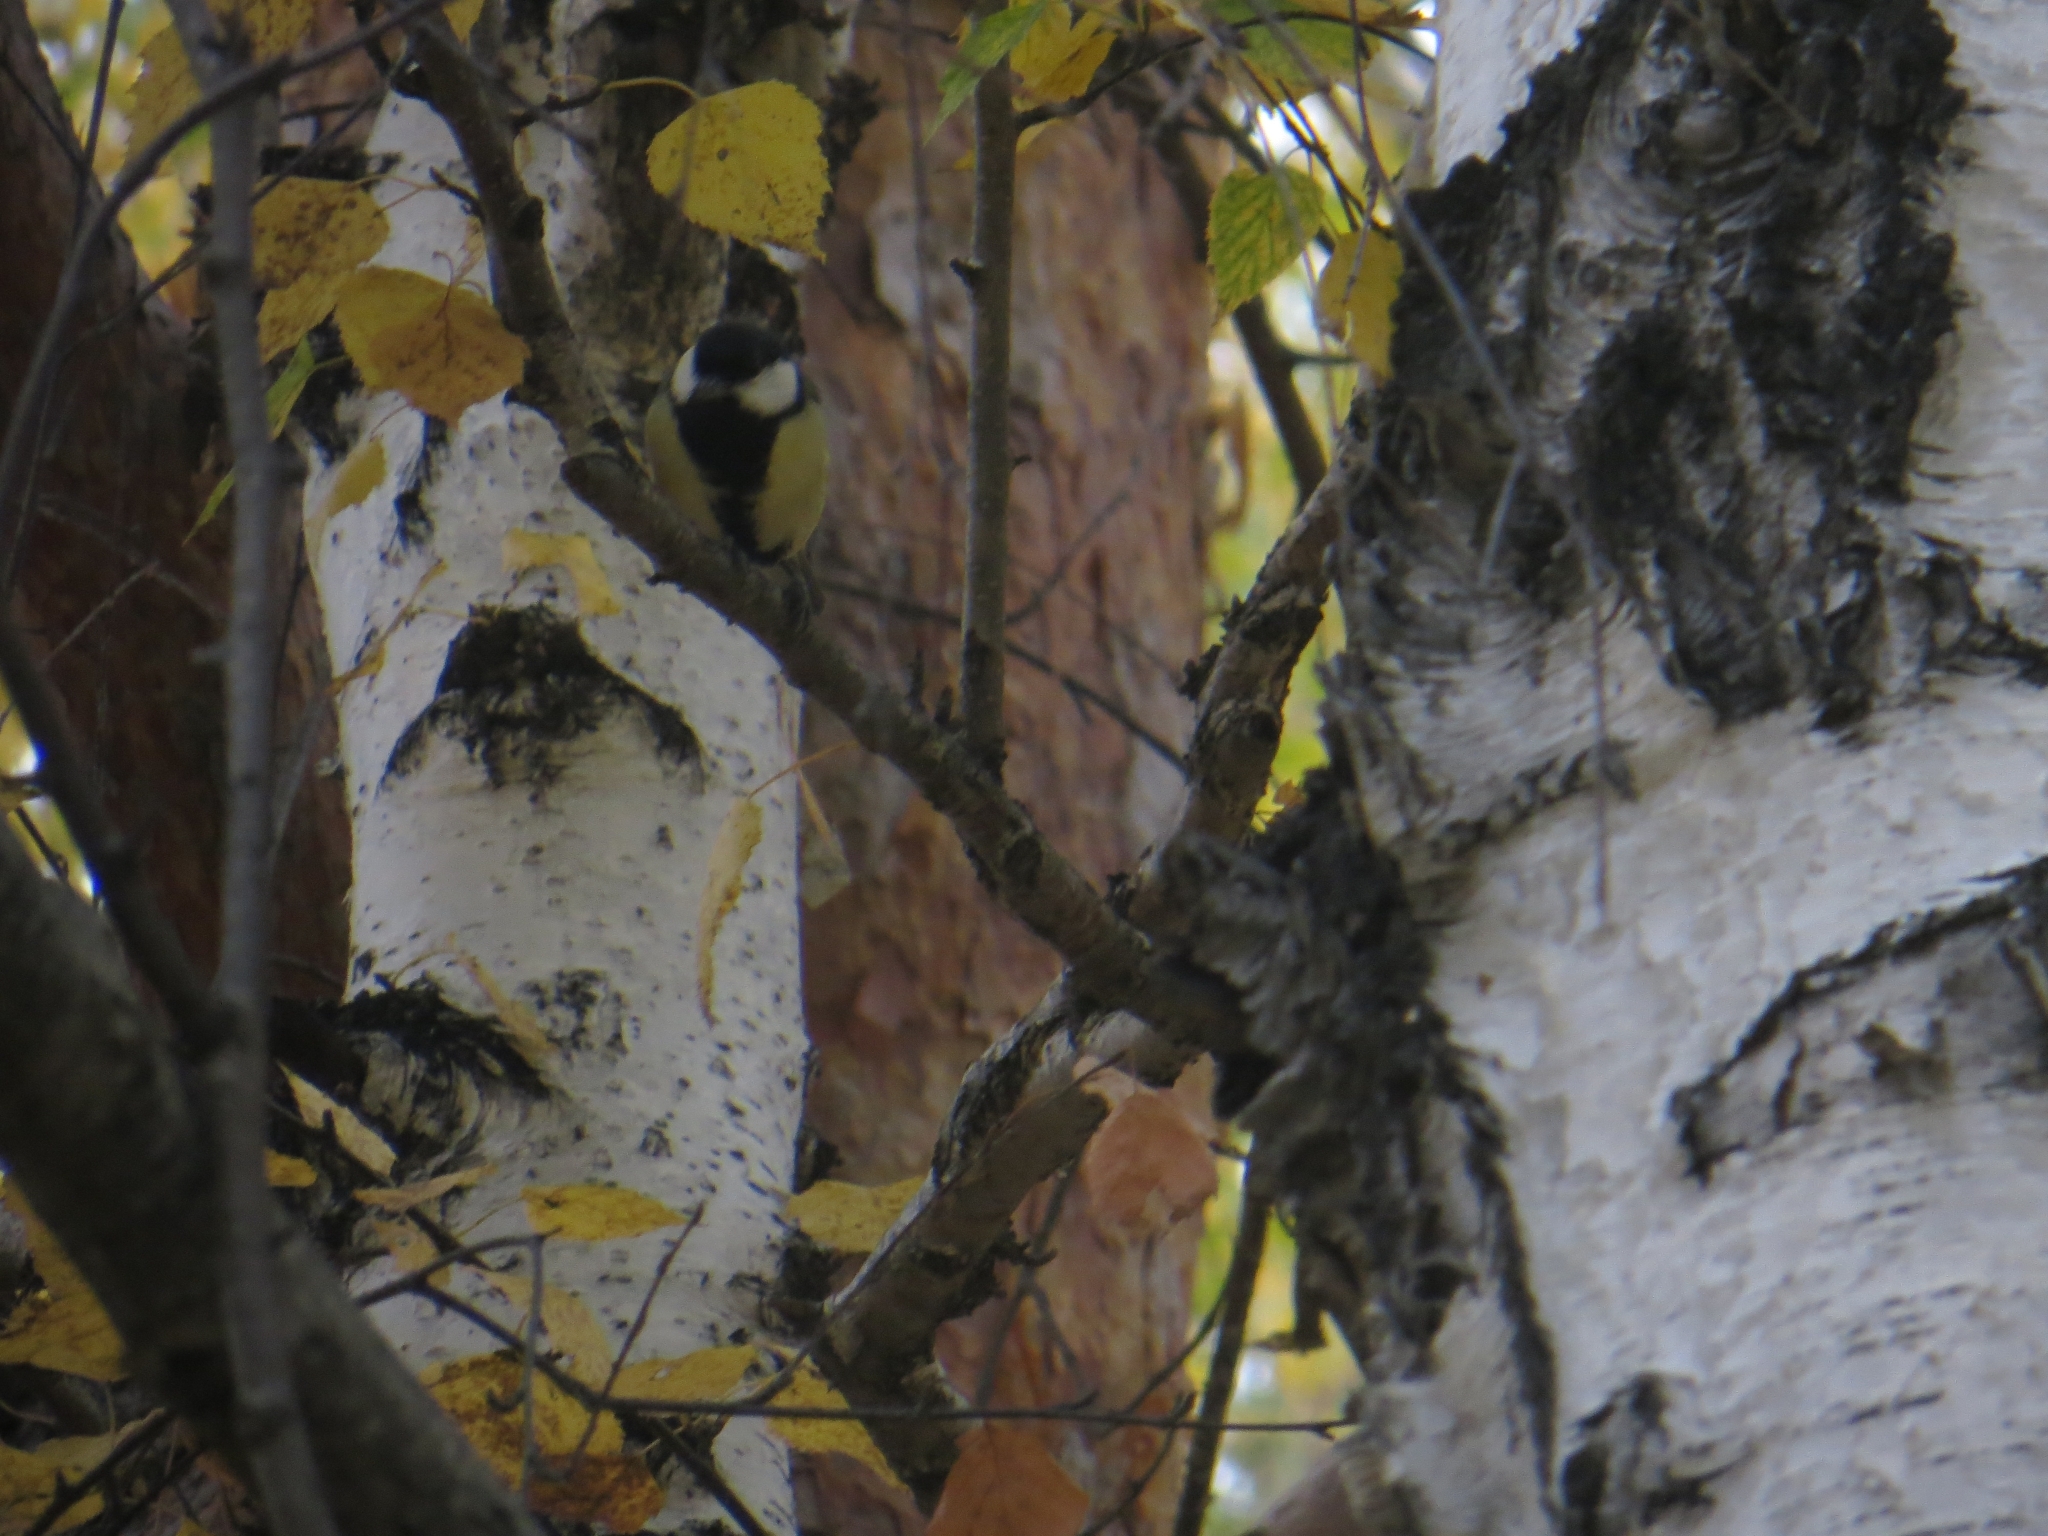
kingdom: Animalia
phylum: Chordata
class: Aves
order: Passeriformes
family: Paridae
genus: Parus
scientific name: Parus major
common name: Great tit
